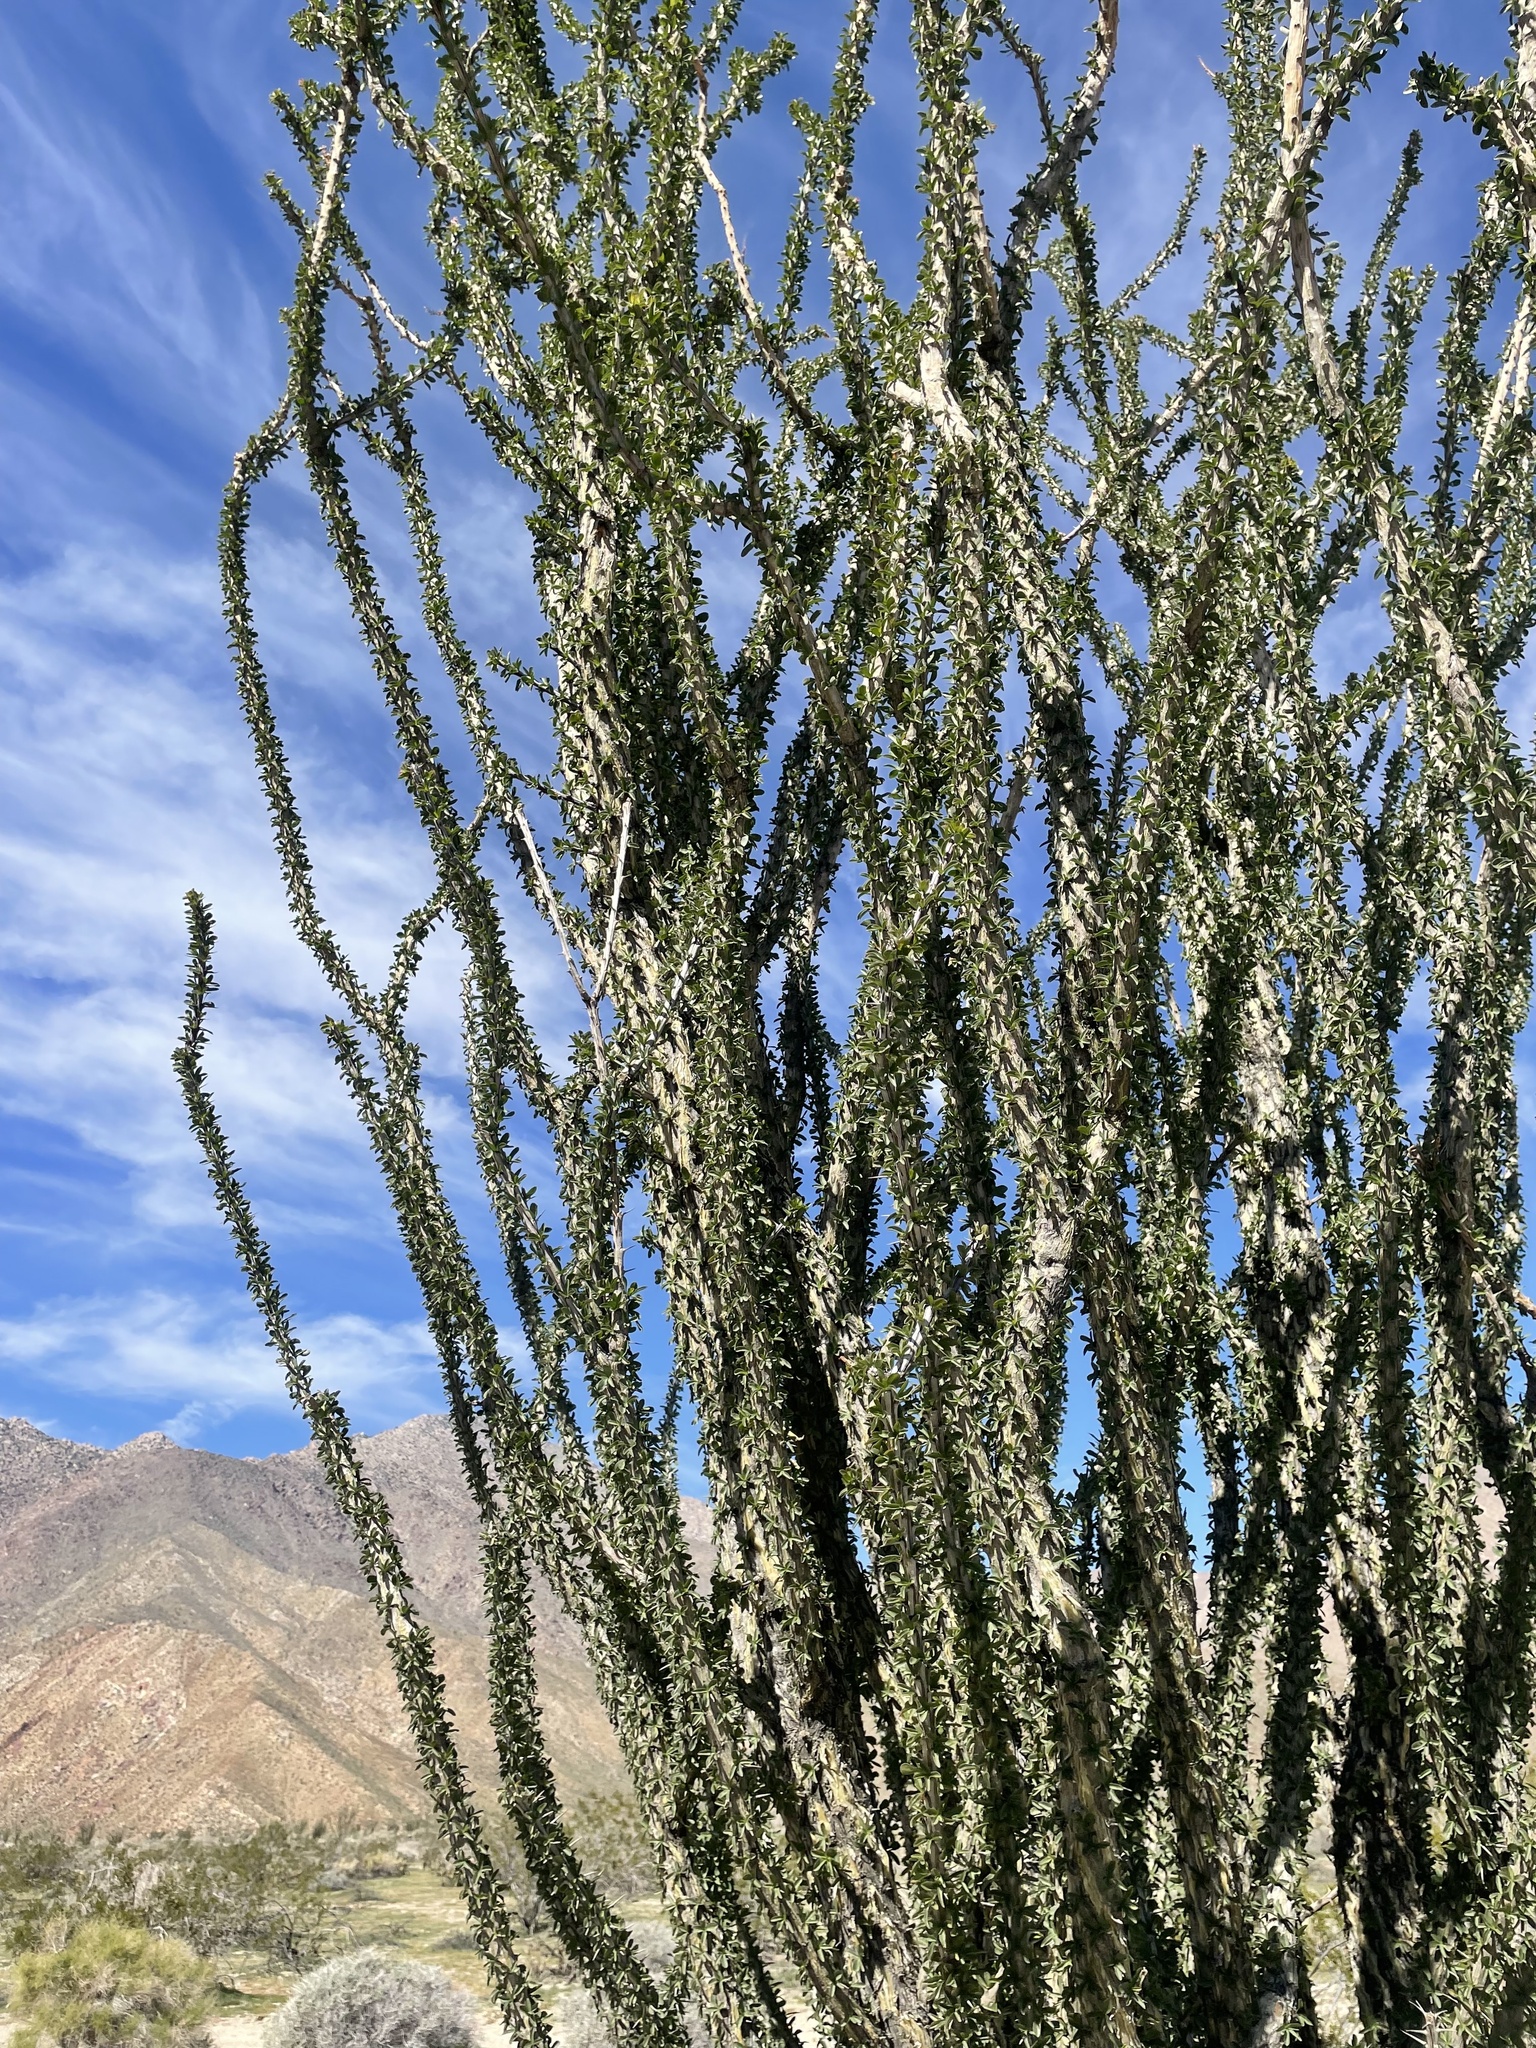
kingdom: Plantae
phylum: Tracheophyta
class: Magnoliopsida
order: Ericales
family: Fouquieriaceae
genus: Fouquieria
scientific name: Fouquieria splendens
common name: Vine-cactus
